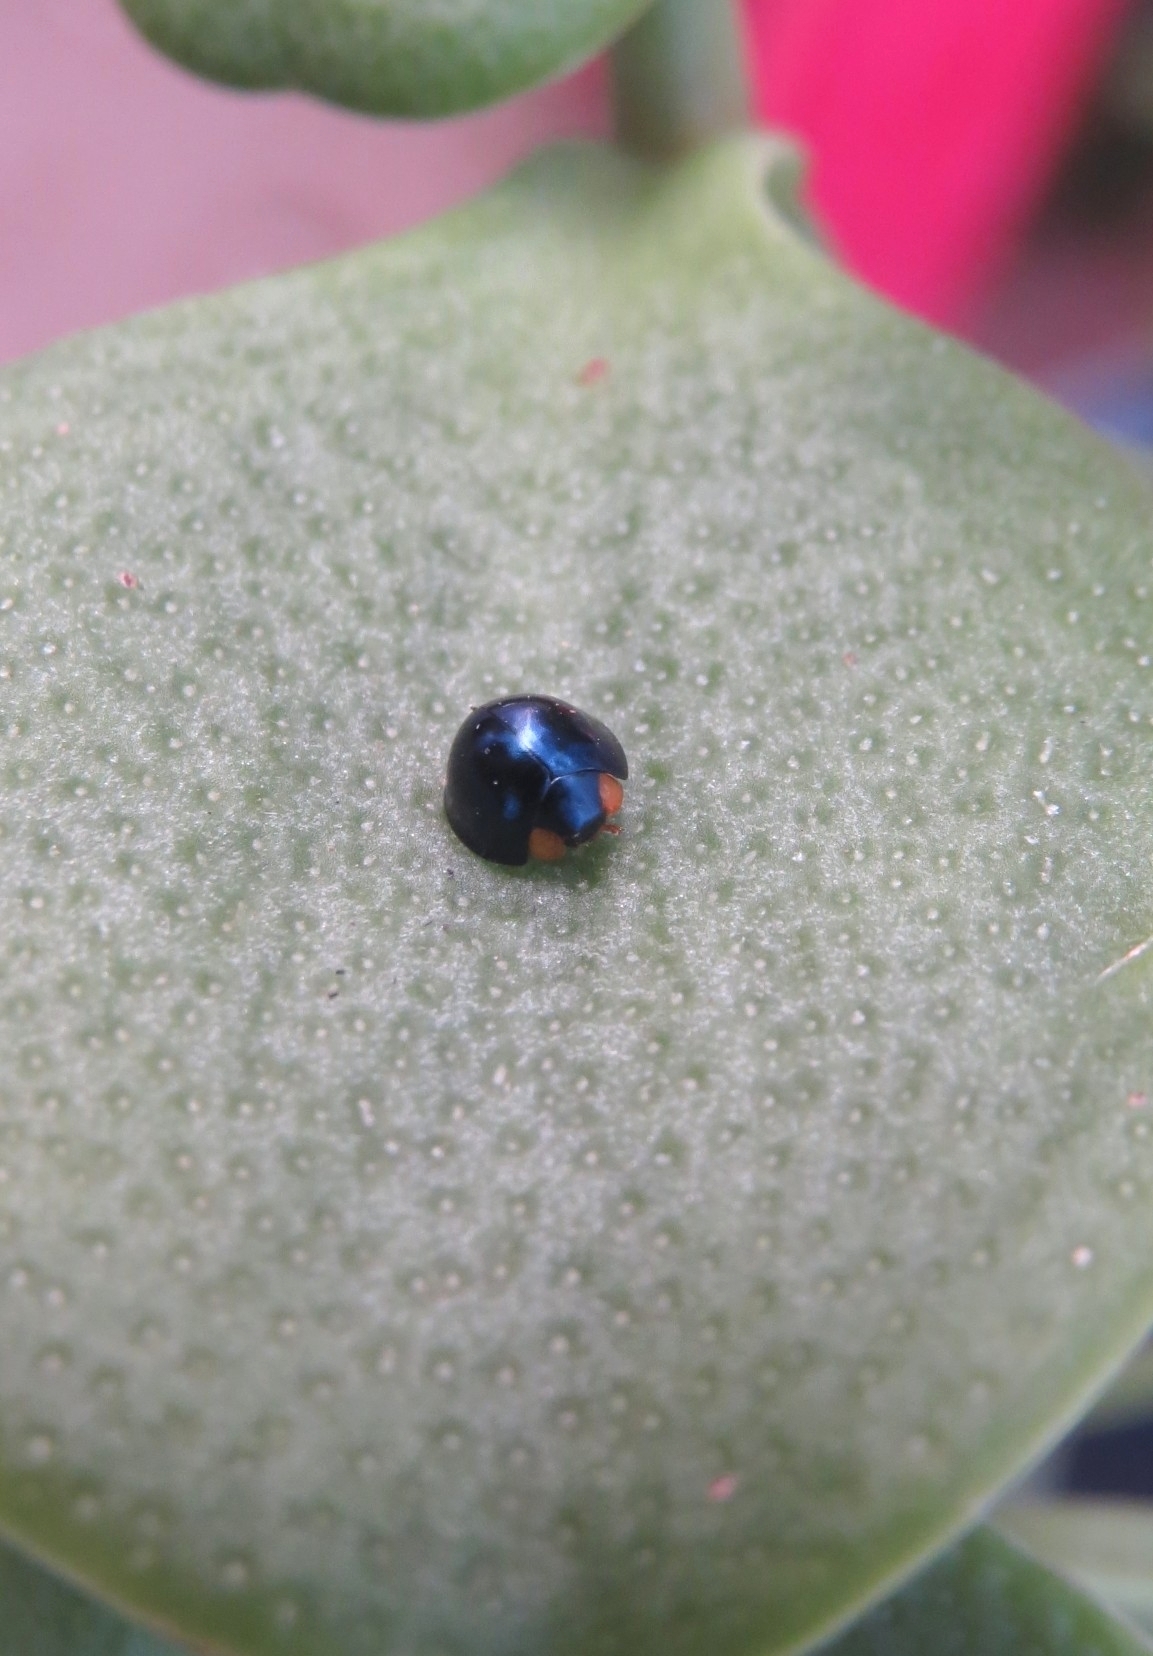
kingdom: Animalia
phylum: Arthropoda
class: Insecta
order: Coleoptera
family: Coccinellidae
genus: Curinus
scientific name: Curinus coeruleus
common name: Ladybird beetle
